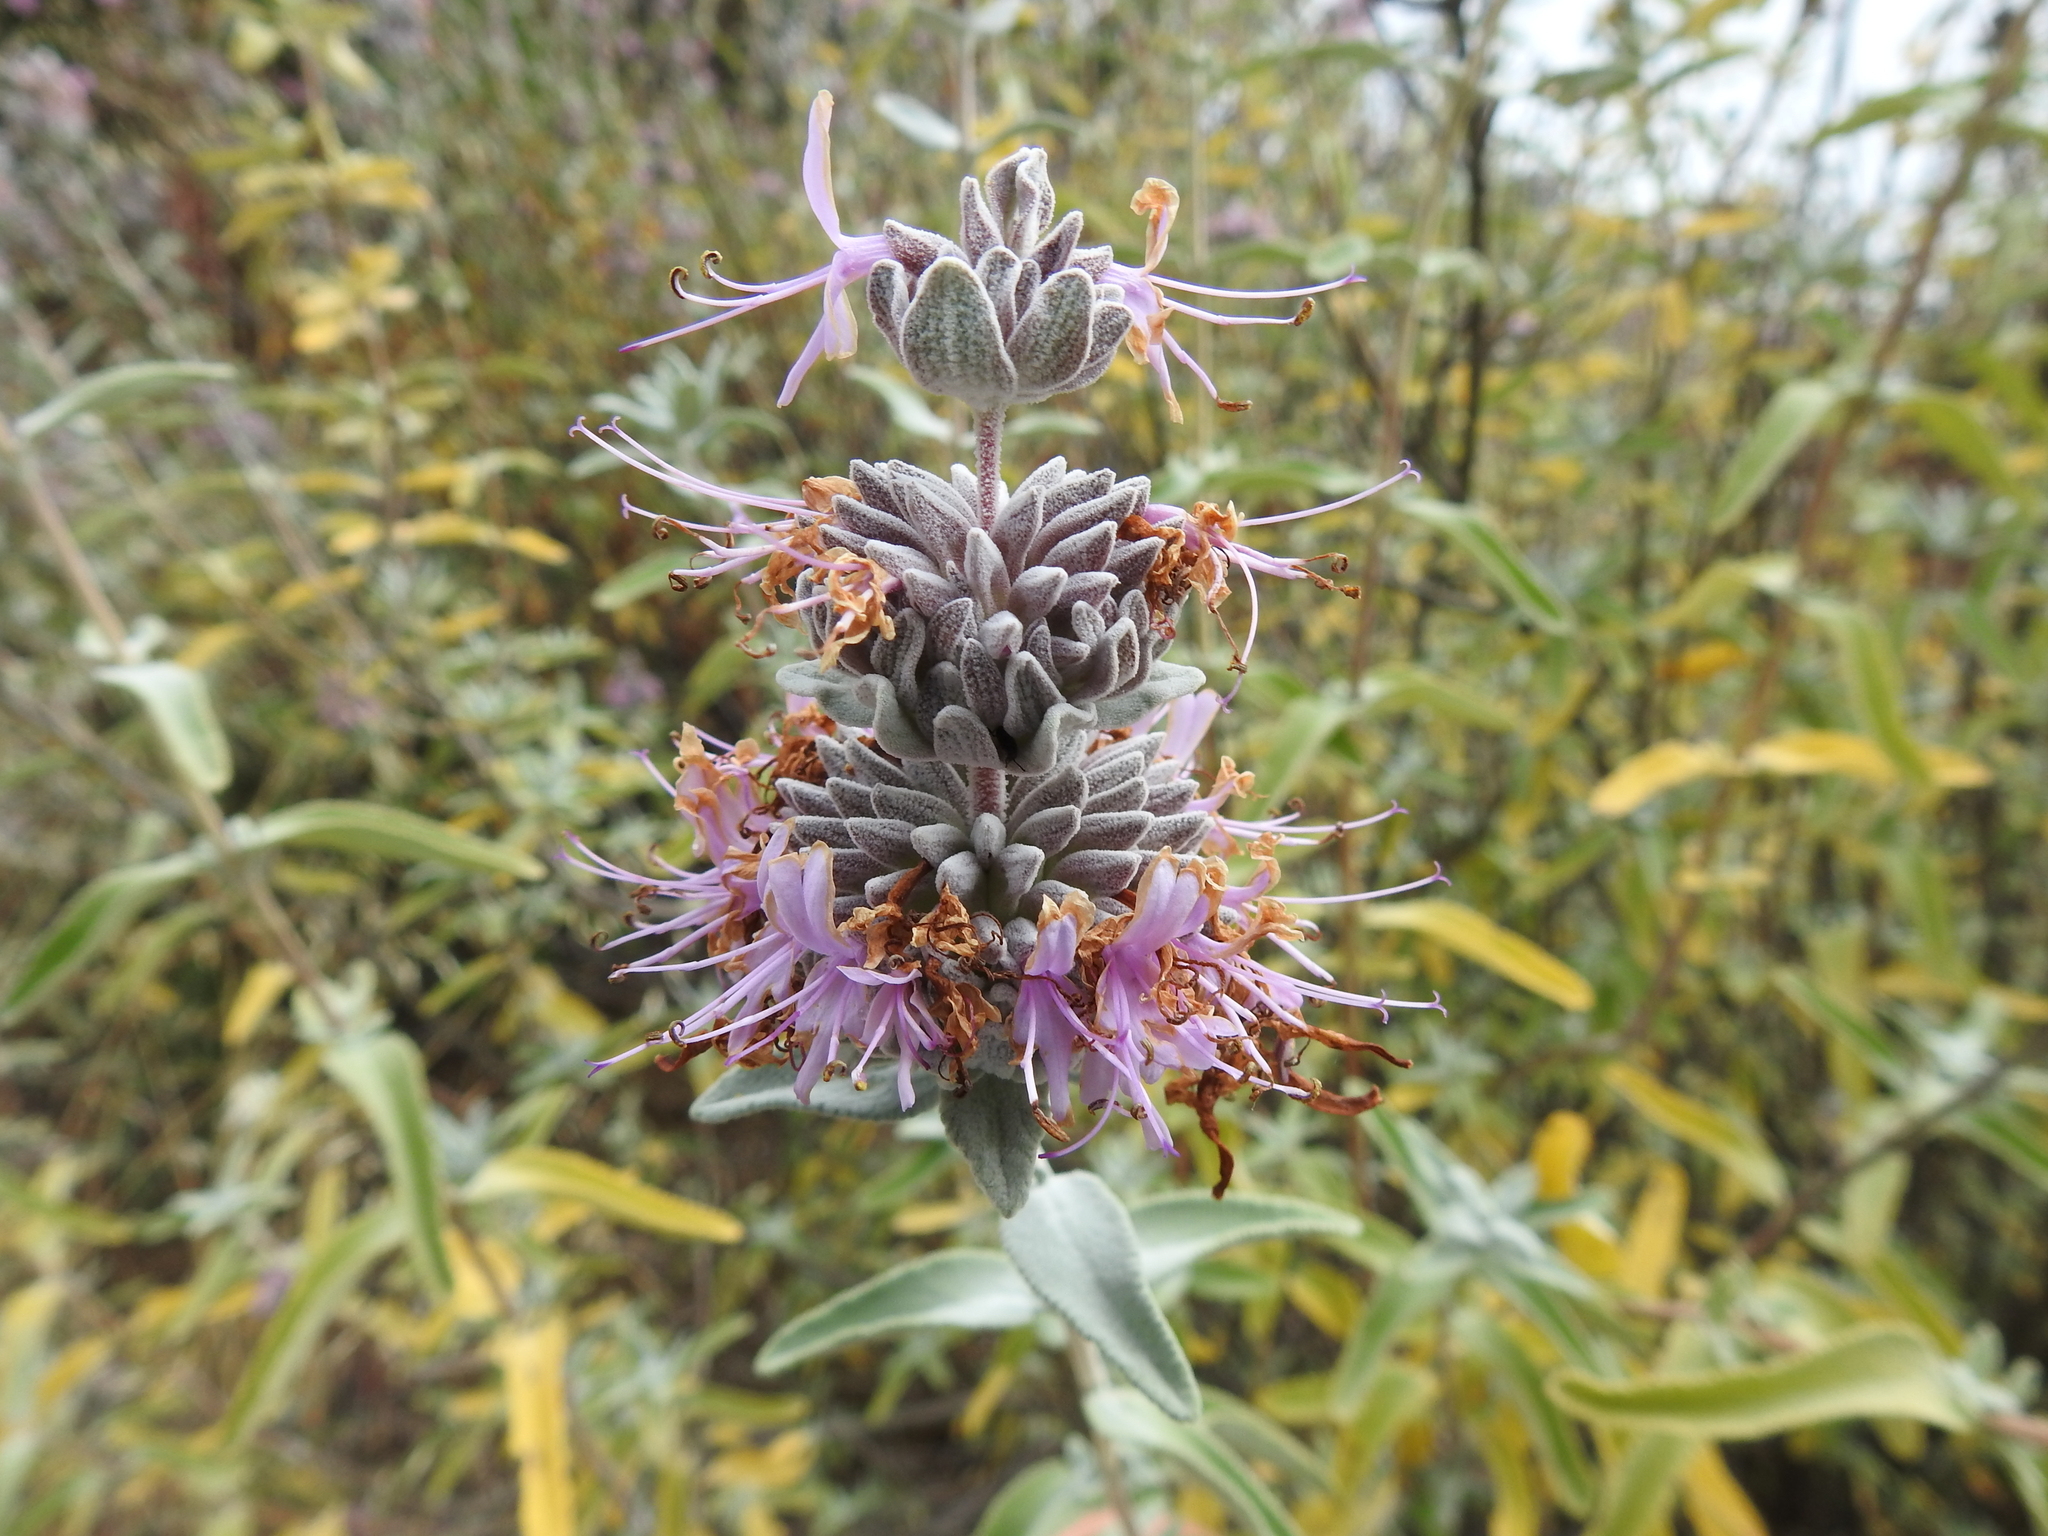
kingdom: Plantae
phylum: Tracheophyta
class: Magnoliopsida
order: Lamiales
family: Lamiaceae
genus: Salvia
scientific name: Salvia leucophylla
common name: Purple sage
